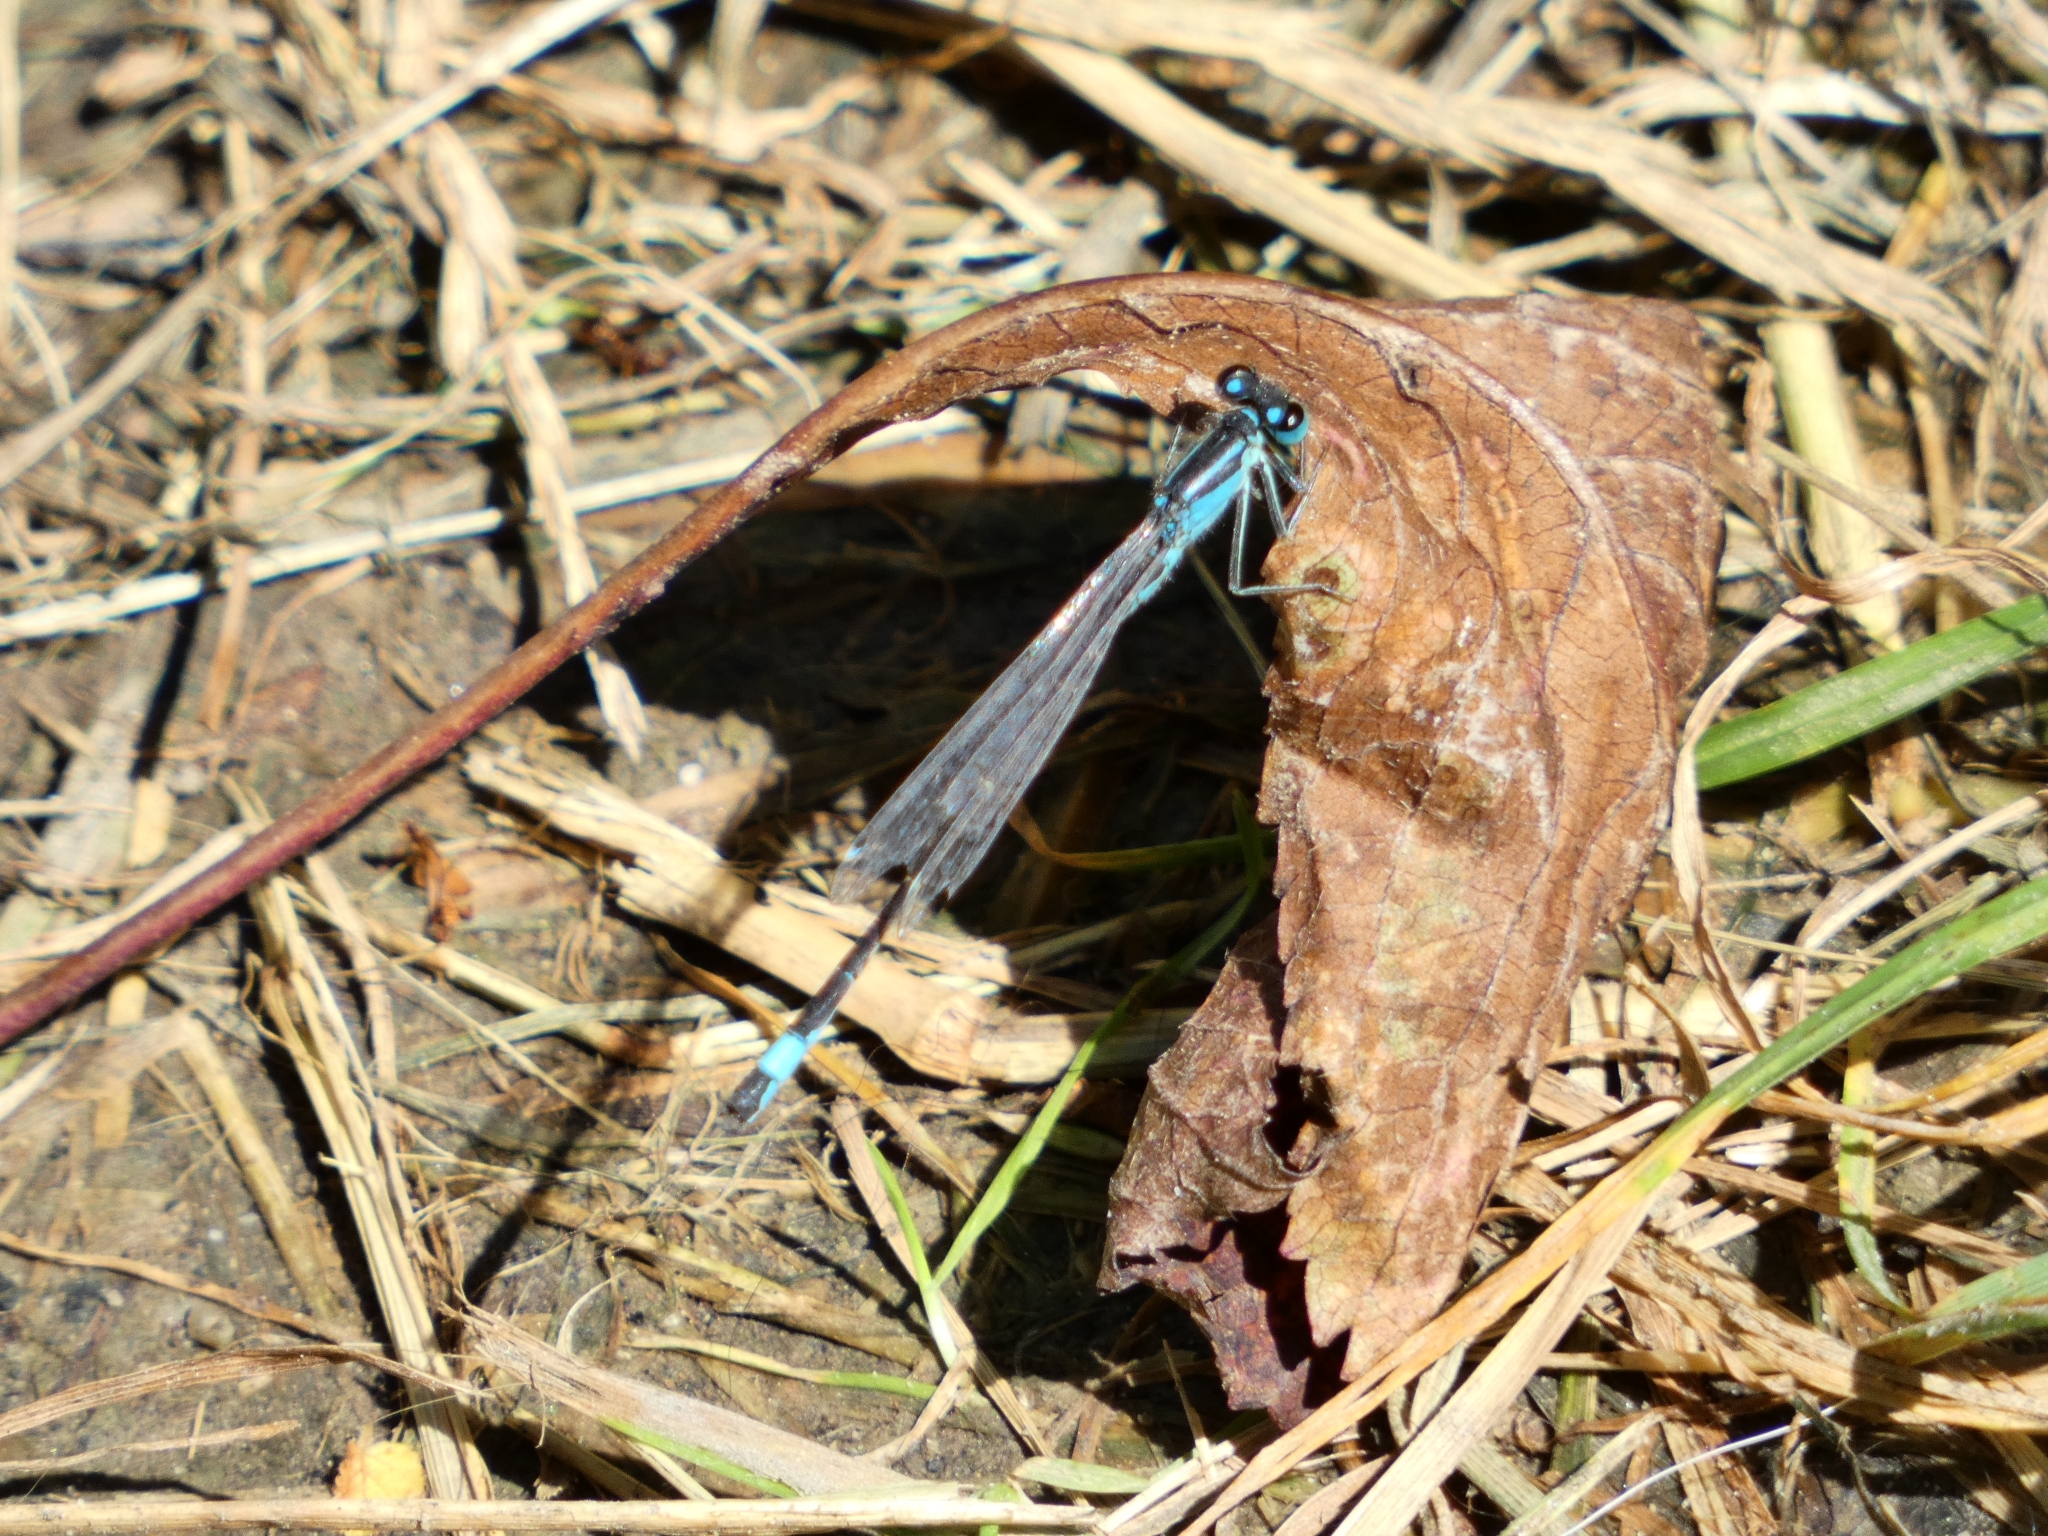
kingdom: Animalia
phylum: Arthropoda
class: Insecta
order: Odonata
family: Coenagrionidae
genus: Ischnura
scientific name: Ischnura elegans
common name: Blue-tailed damselfly
